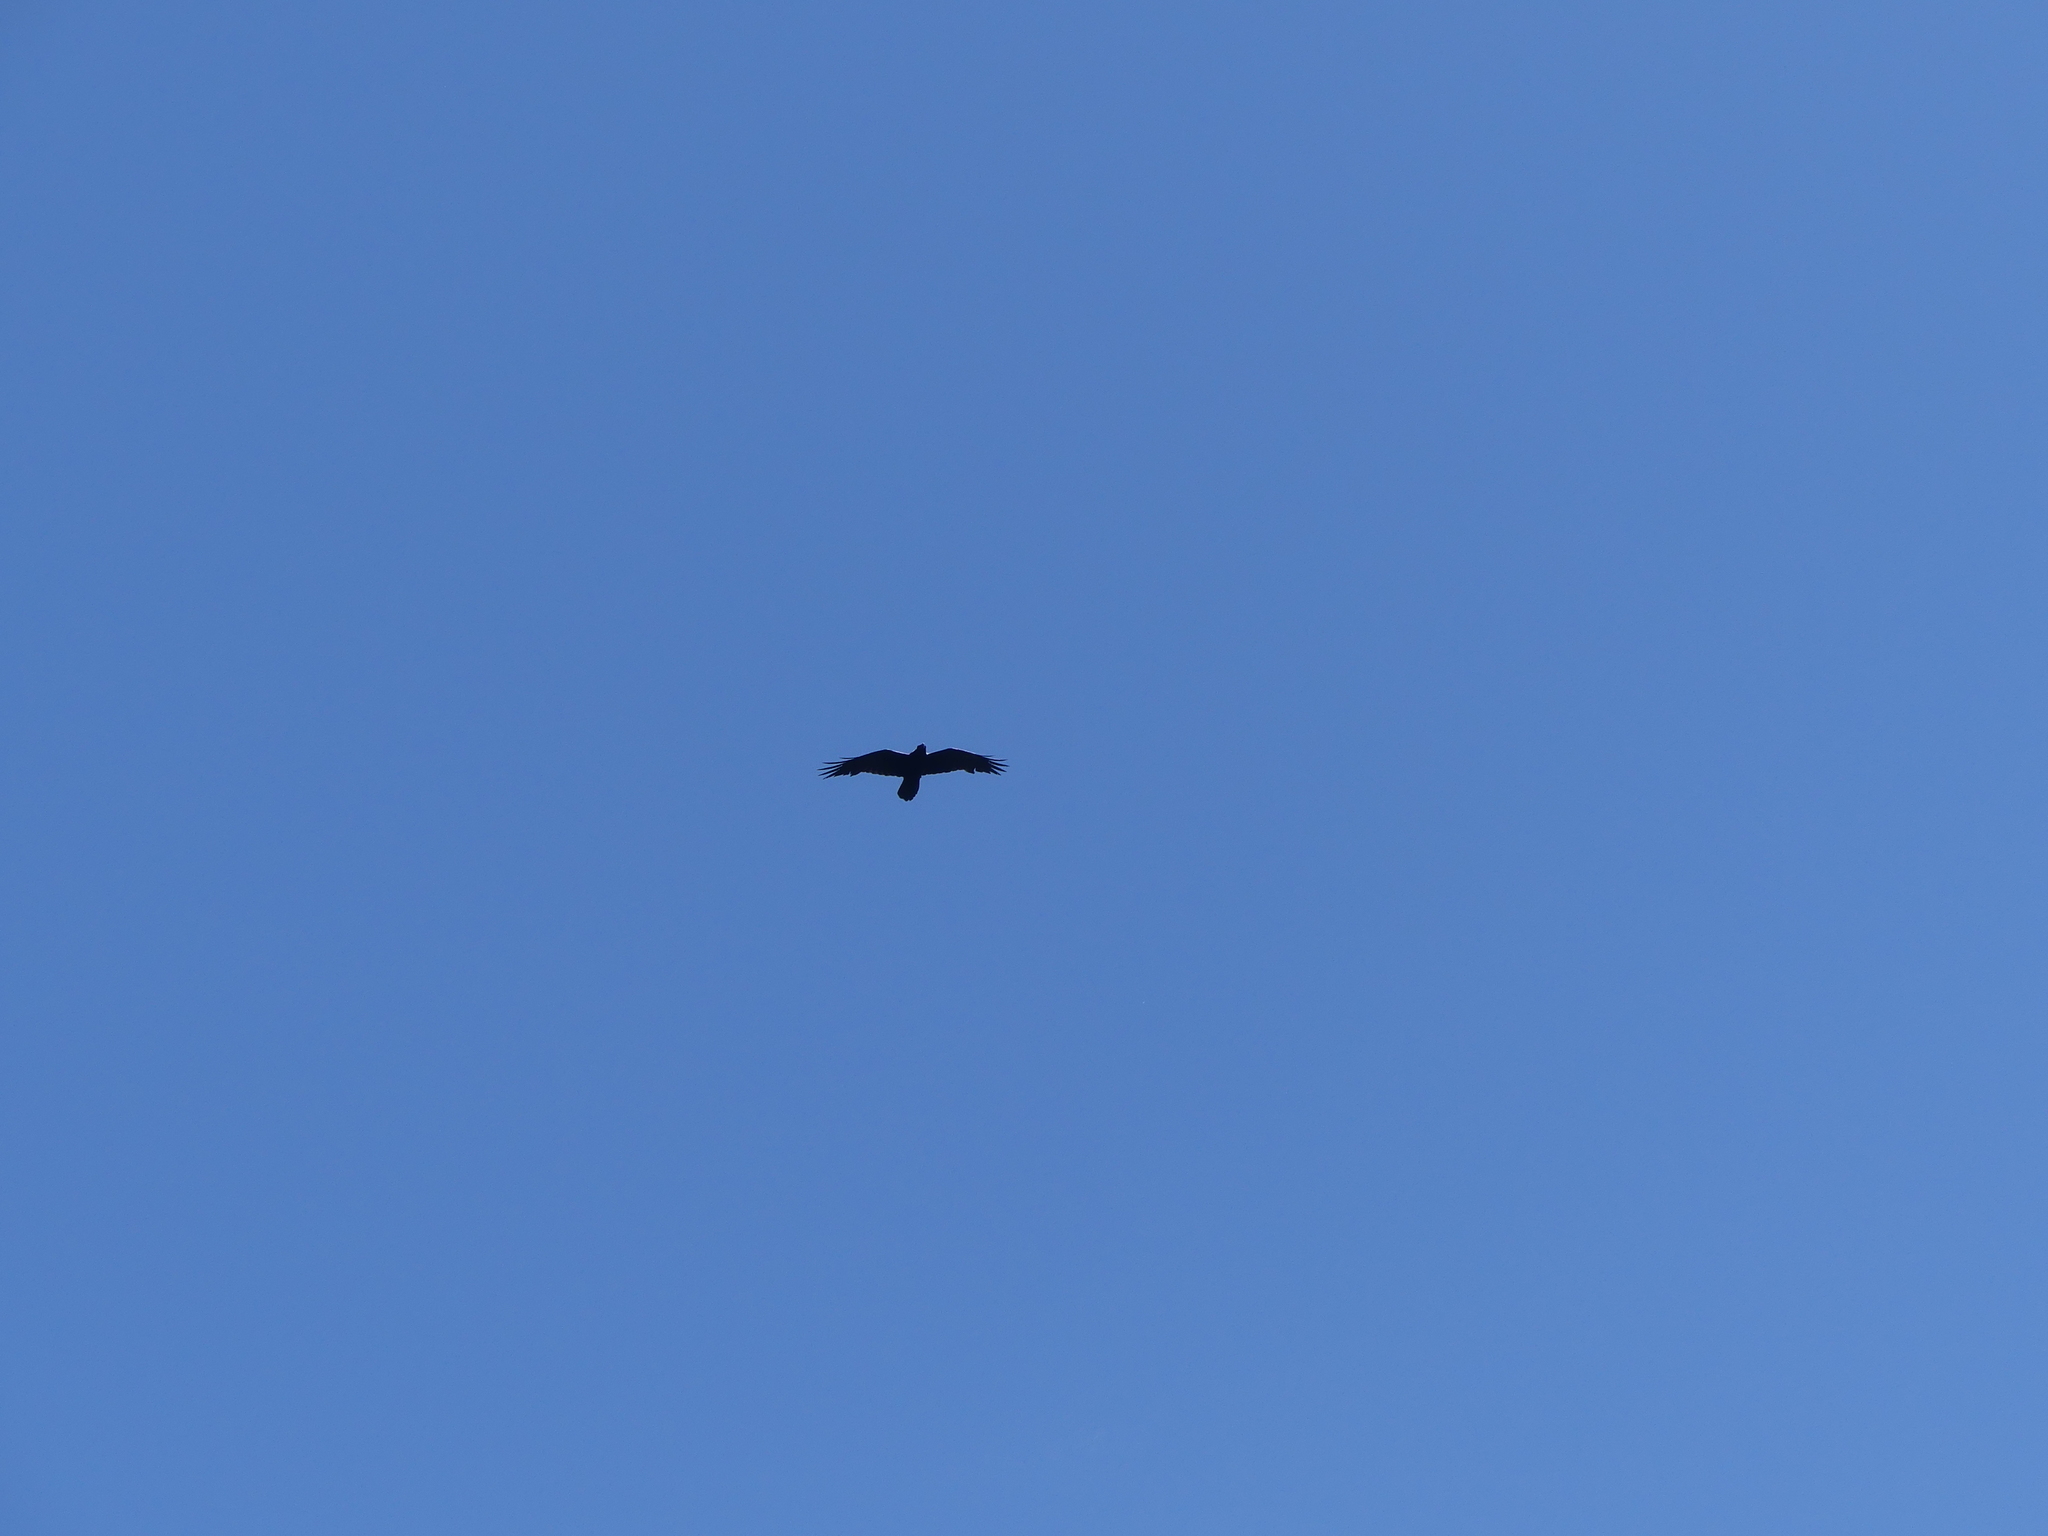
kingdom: Animalia
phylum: Chordata
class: Aves
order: Passeriformes
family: Corvidae
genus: Corvus
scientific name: Corvus corax
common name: Common raven
